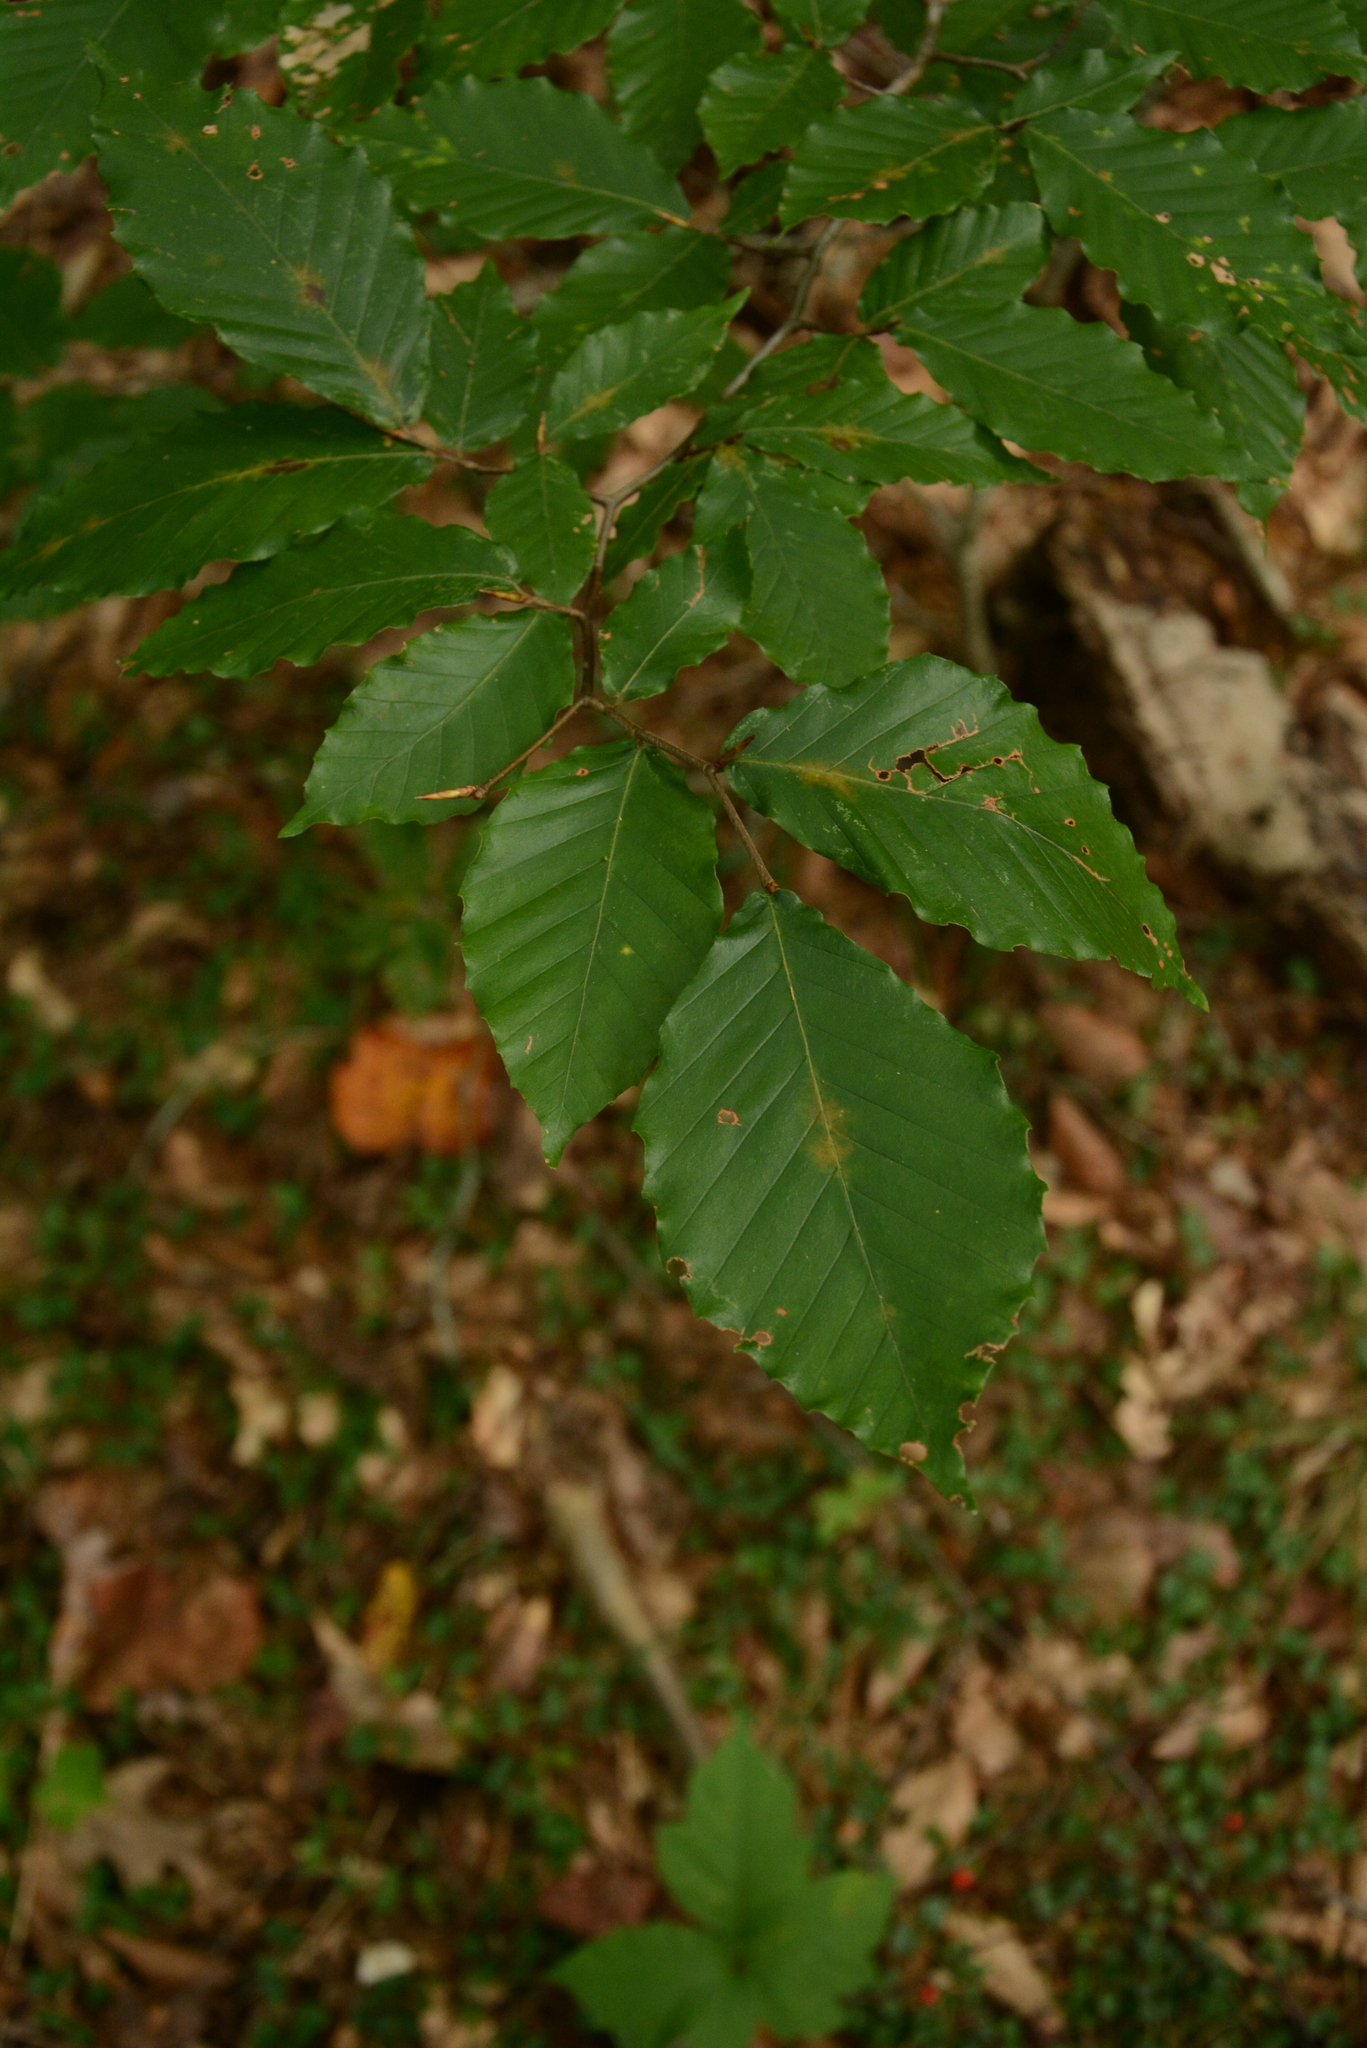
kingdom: Plantae
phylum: Tracheophyta
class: Magnoliopsida
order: Fagales
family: Fagaceae
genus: Fagus
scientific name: Fagus grandifolia
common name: American beech
